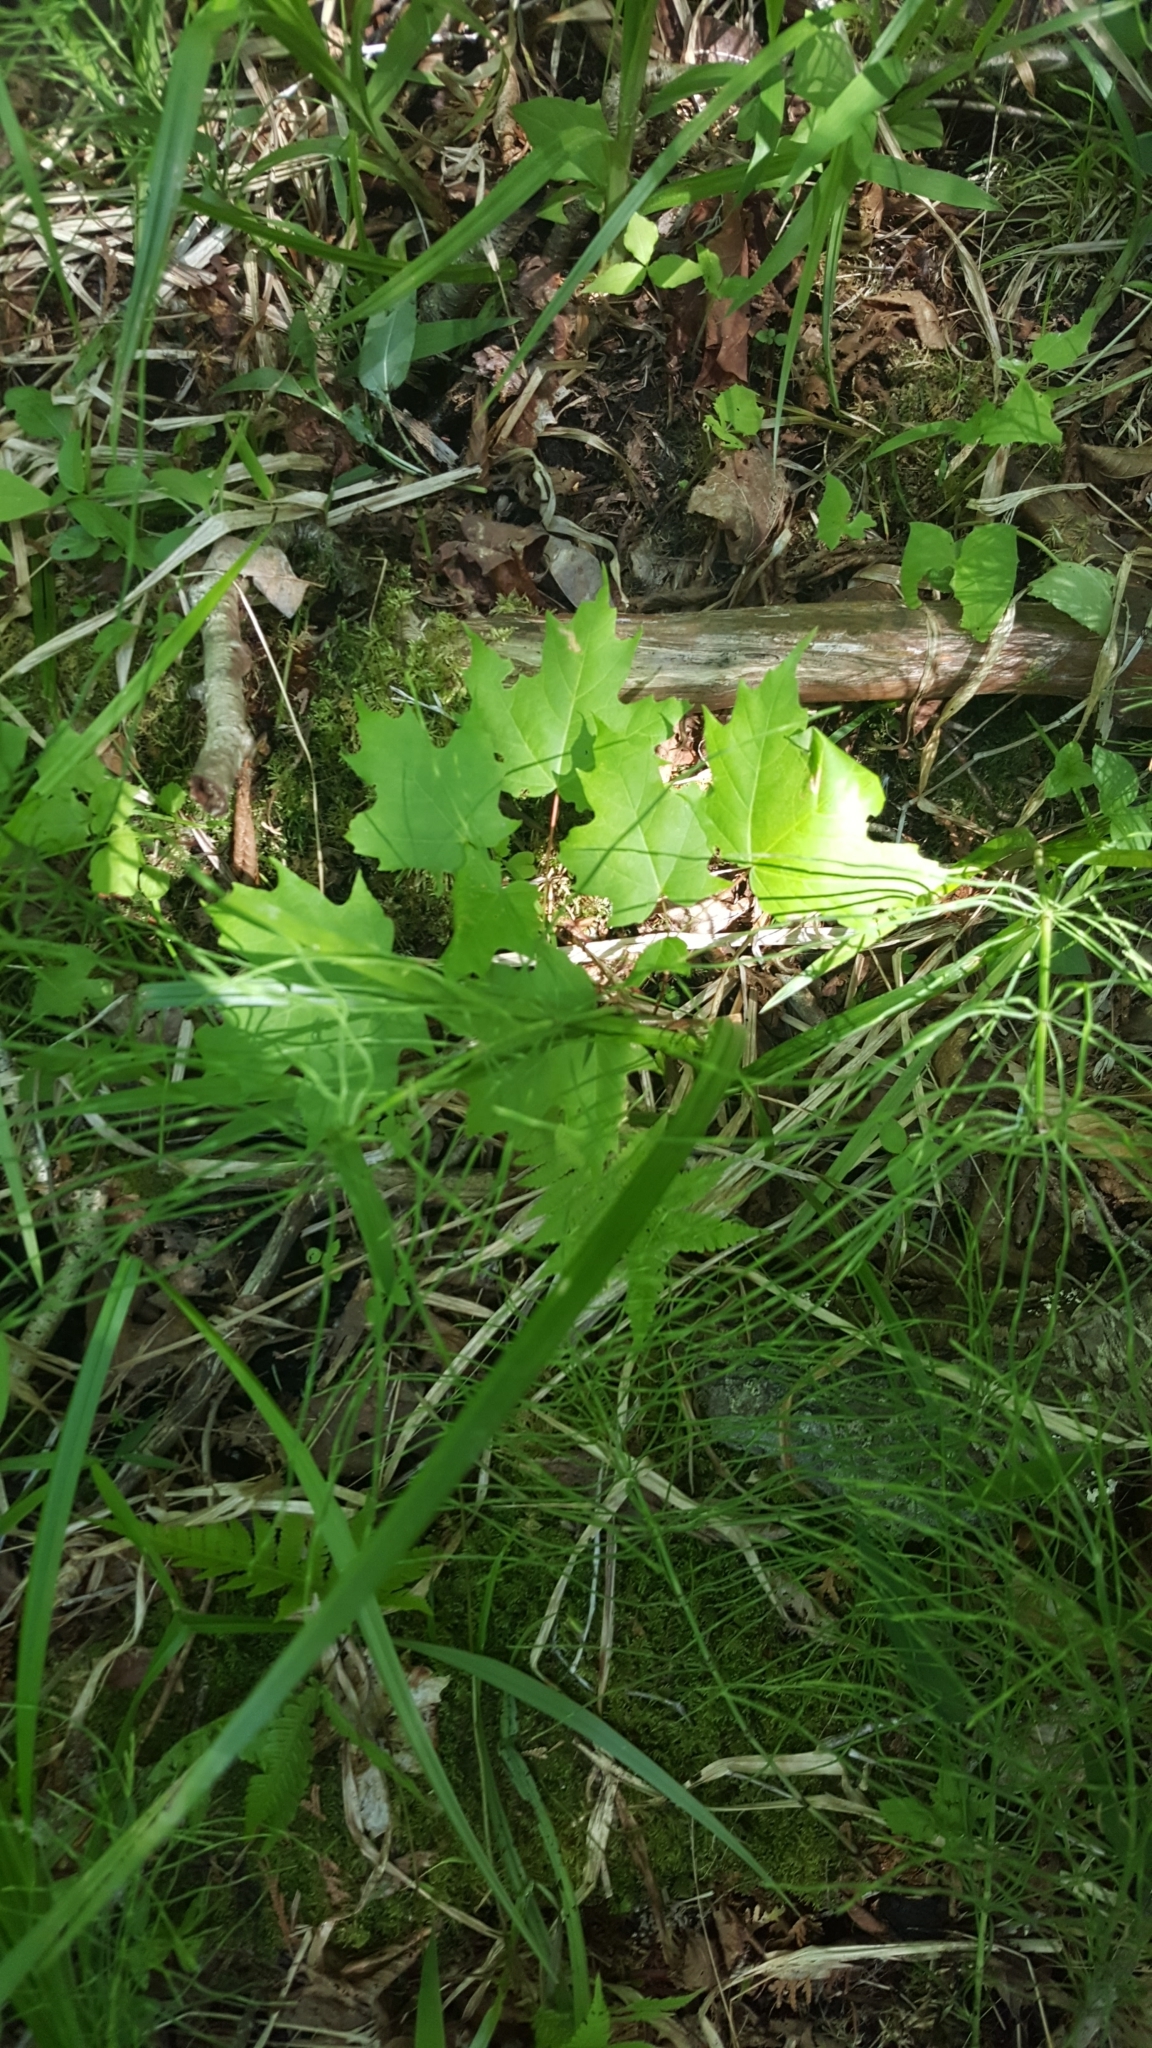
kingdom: Plantae
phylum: Tracheophyta
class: Magnoliopsida
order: Sapindales
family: Sapindaceae
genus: Acer
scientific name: Acer saccharum
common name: Sugar maple
